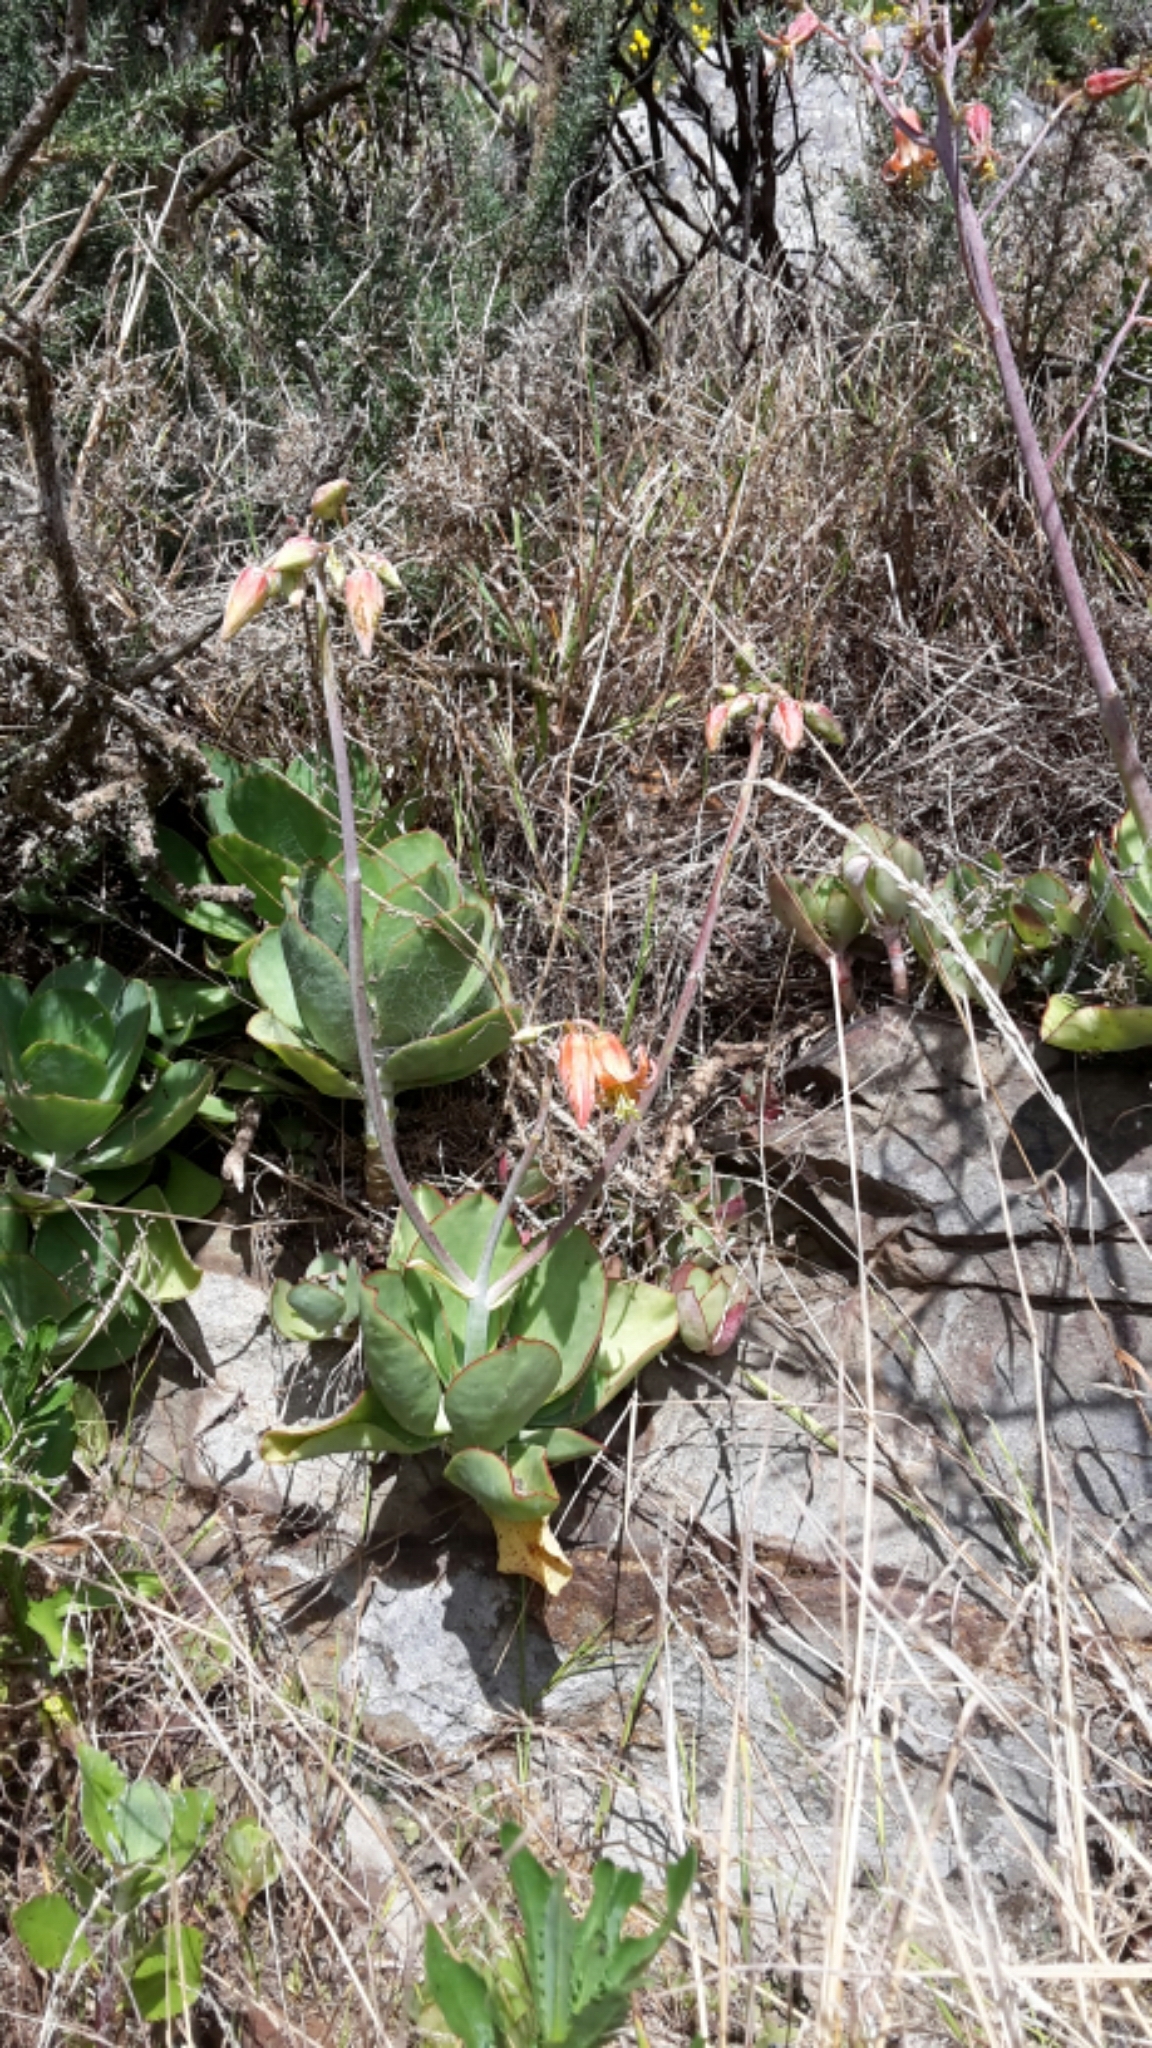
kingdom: Plantae
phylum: Tracheophyta
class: Magnoliopsida
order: Saxifragales
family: Crassulaceae
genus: Cotyledon
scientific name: Cotyledon orbiculata
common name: Pig's ear
